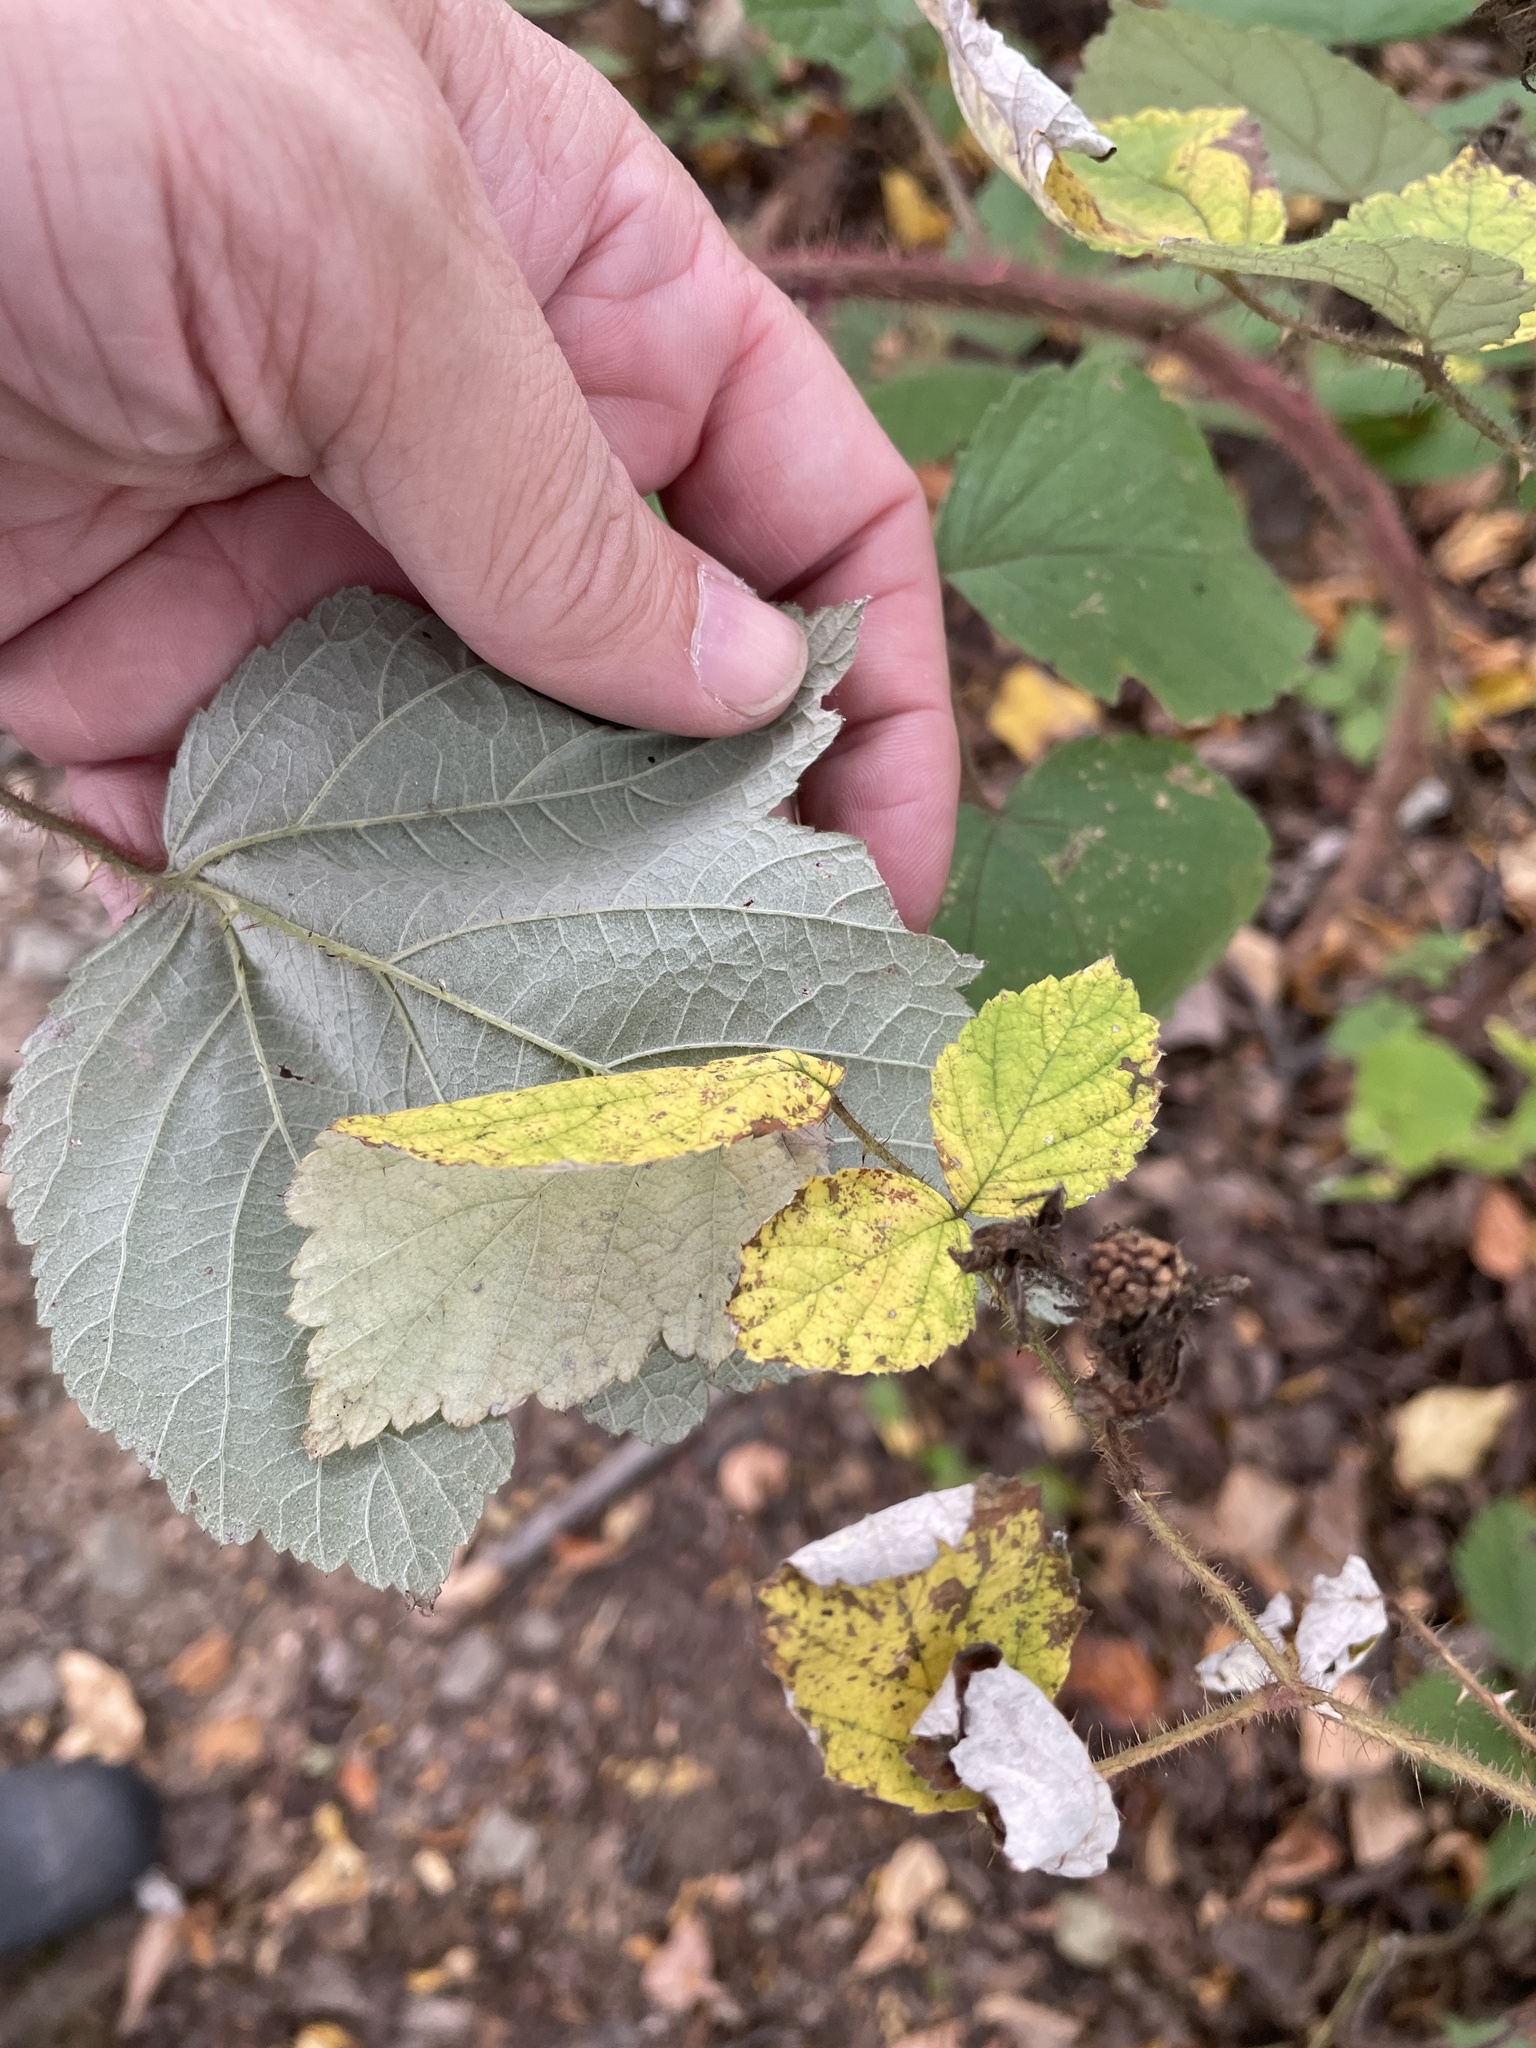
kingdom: Plantae
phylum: Tracheophyta
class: Magnoliopsida
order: Rosales
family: Rosaceae
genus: Rubus
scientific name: Rubus phoenicolasius
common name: Japanese wineberry
